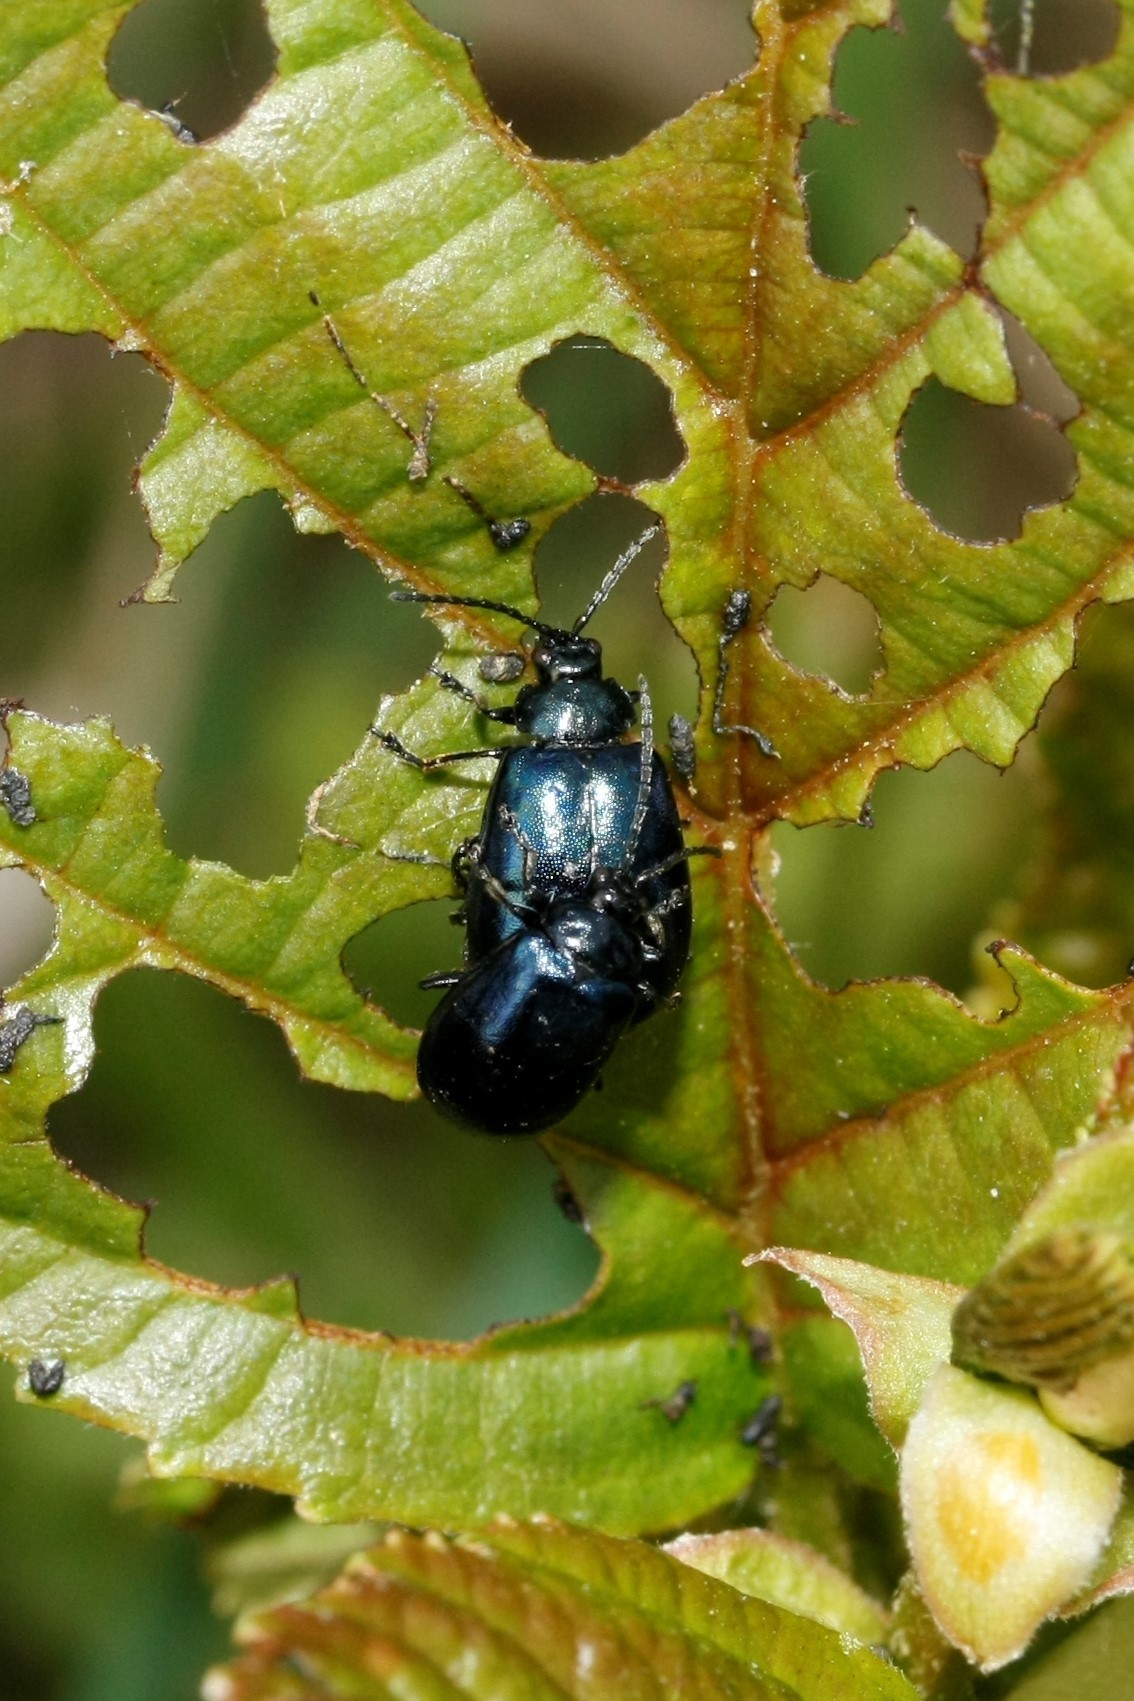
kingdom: Animalia
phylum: Arthropoda
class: Insecta
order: Coleoptera
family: Chrysomelidae
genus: Agelastica
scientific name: Agelastica alni
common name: Alder leaf beetle
